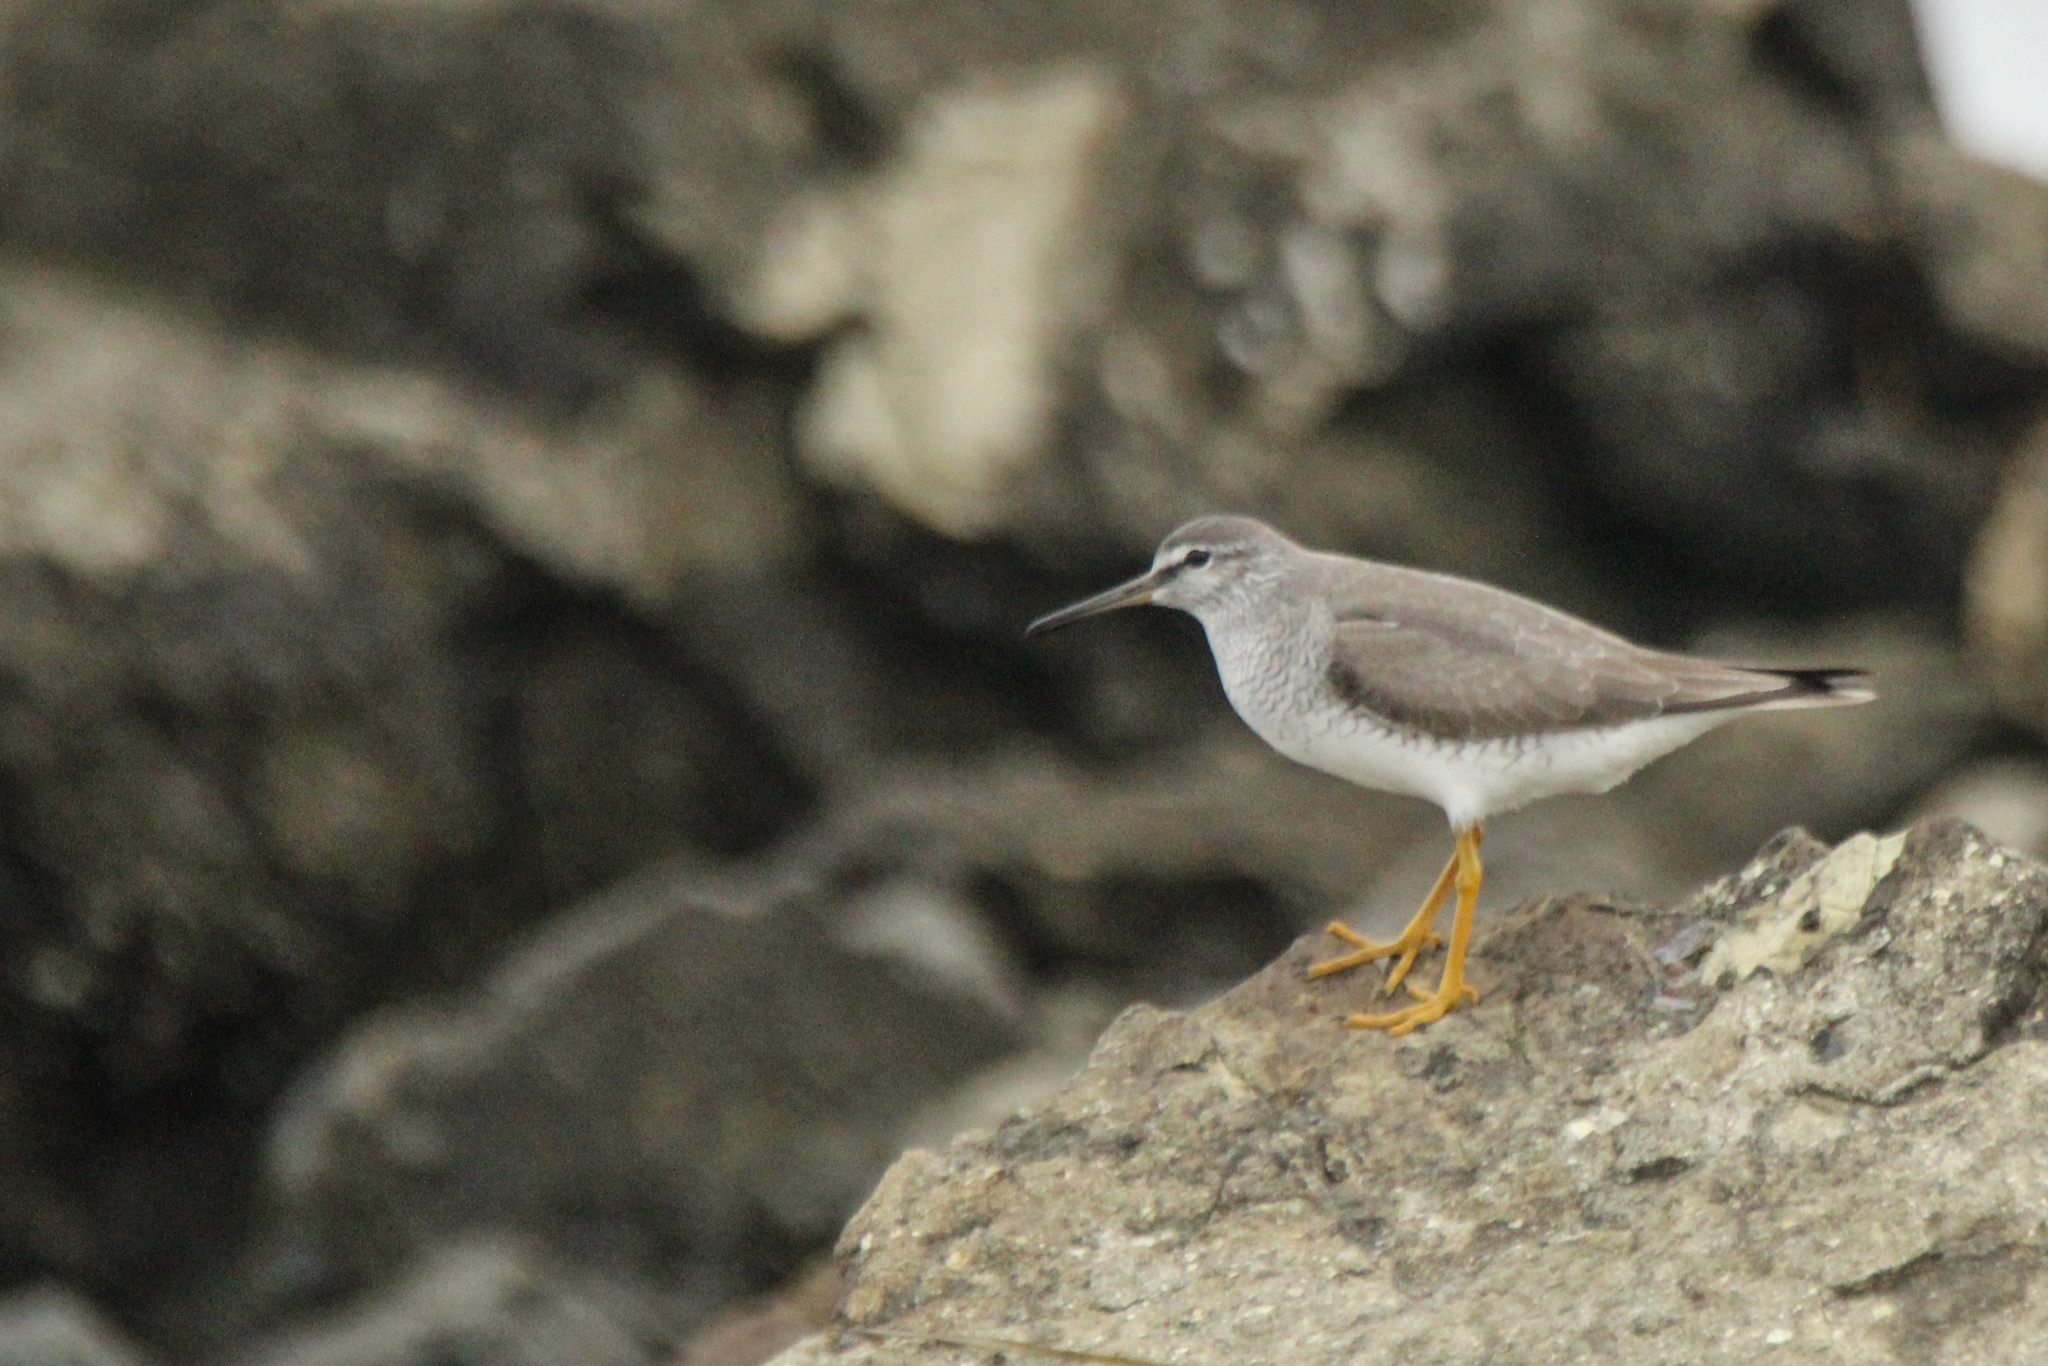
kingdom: Animalia
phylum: Chordata
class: Aves
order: Charadriiformes
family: Scolopacidae
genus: Tringa
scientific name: Tringa brevipes
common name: Grey-tailed tattler
